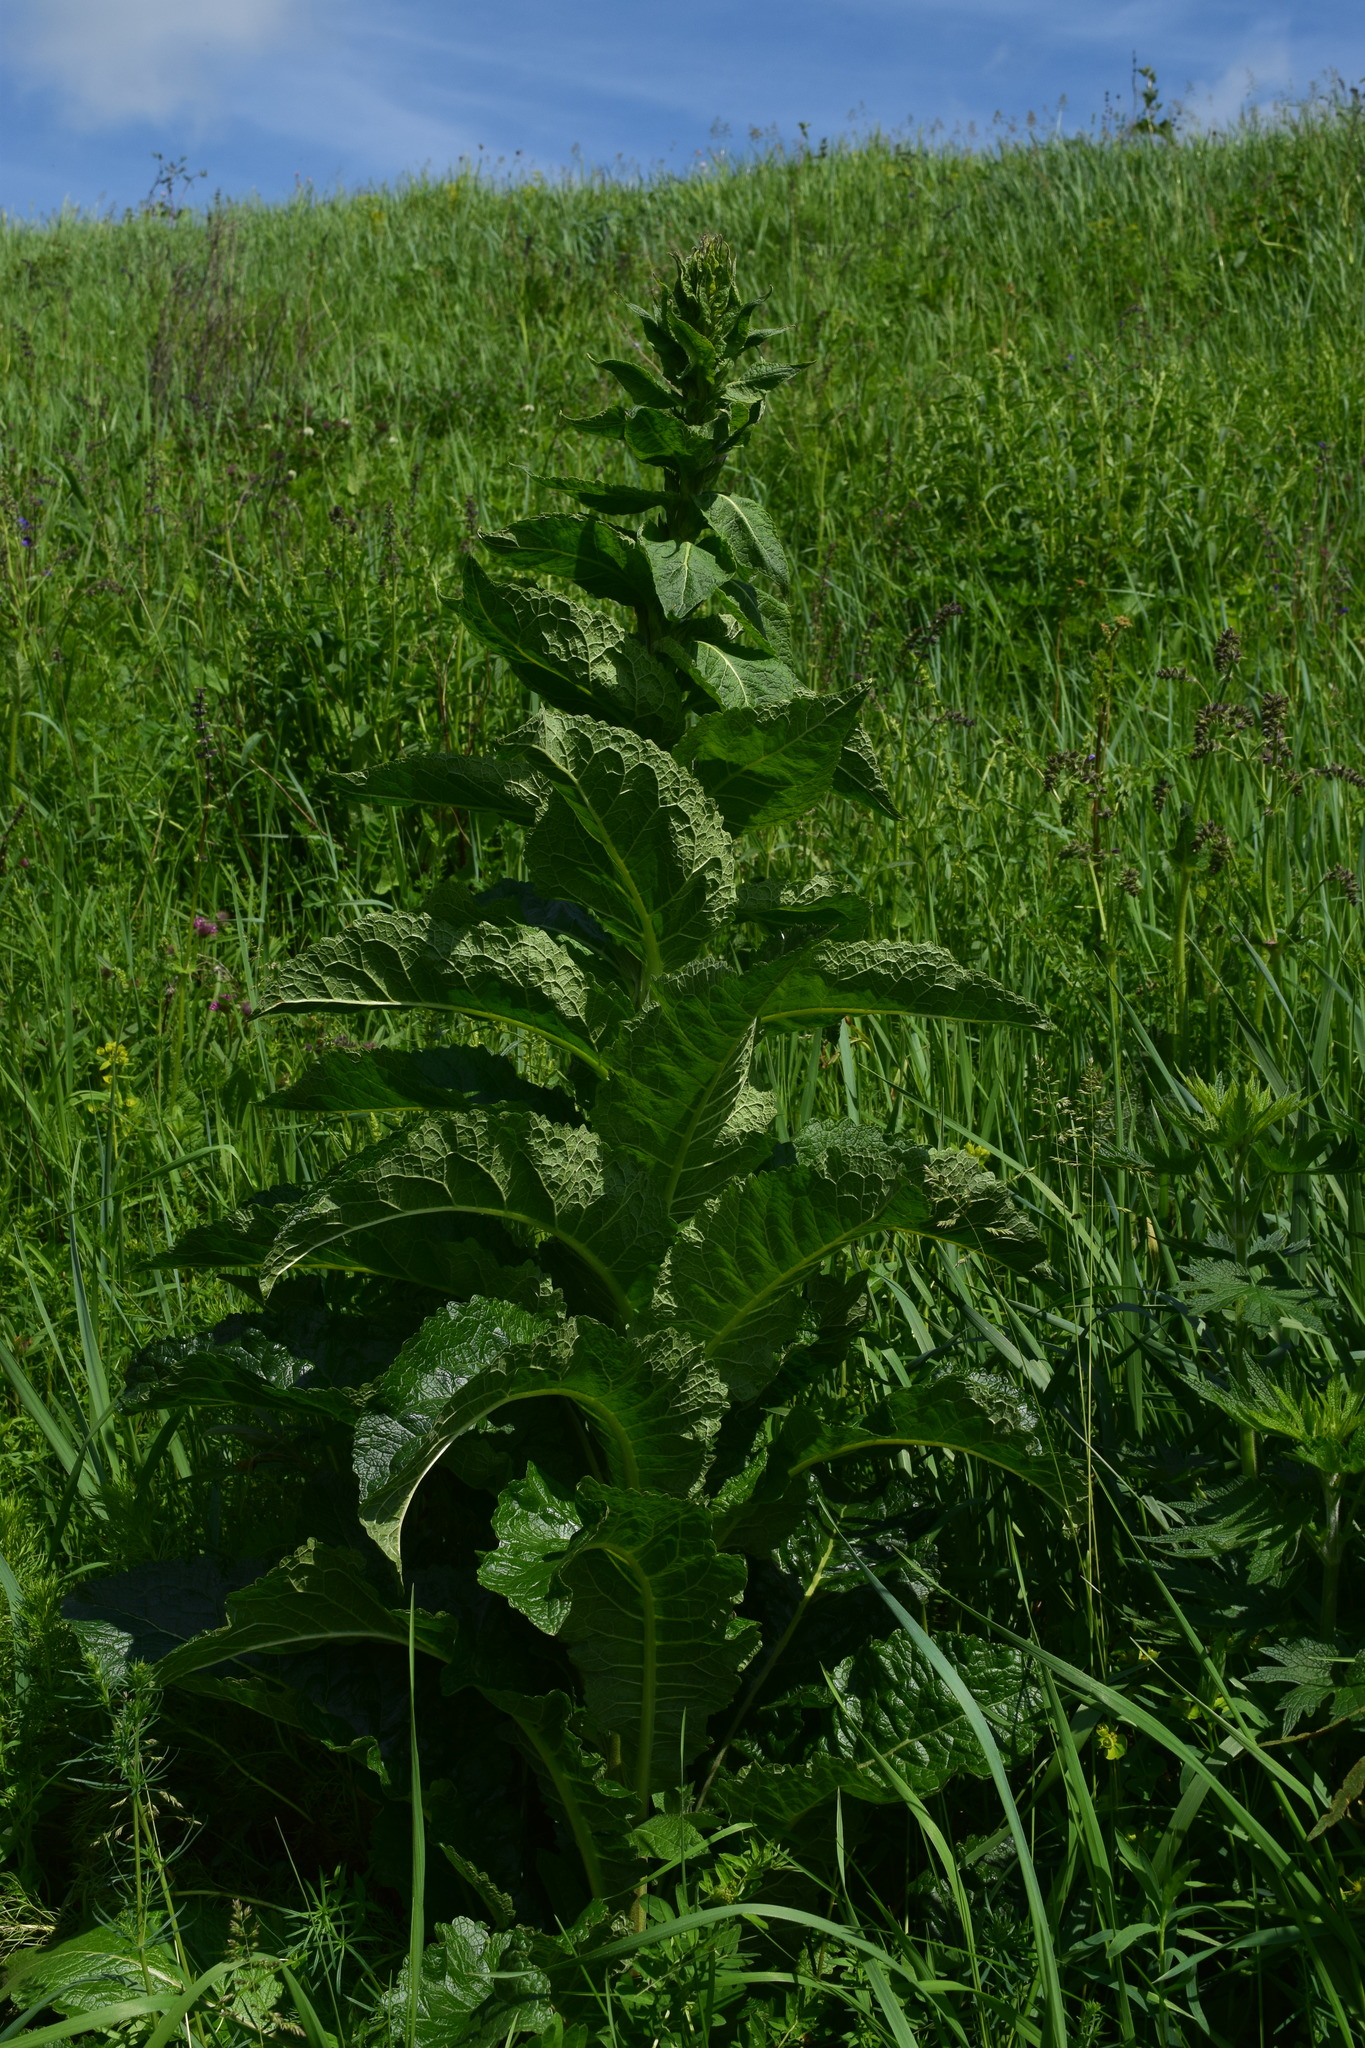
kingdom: Plantae
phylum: Tracheophyta
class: Magnoliopsida
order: Lamiales
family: Scrophulariaceae
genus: Verbascum
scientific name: Verbascum lychnitis
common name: White mullein
